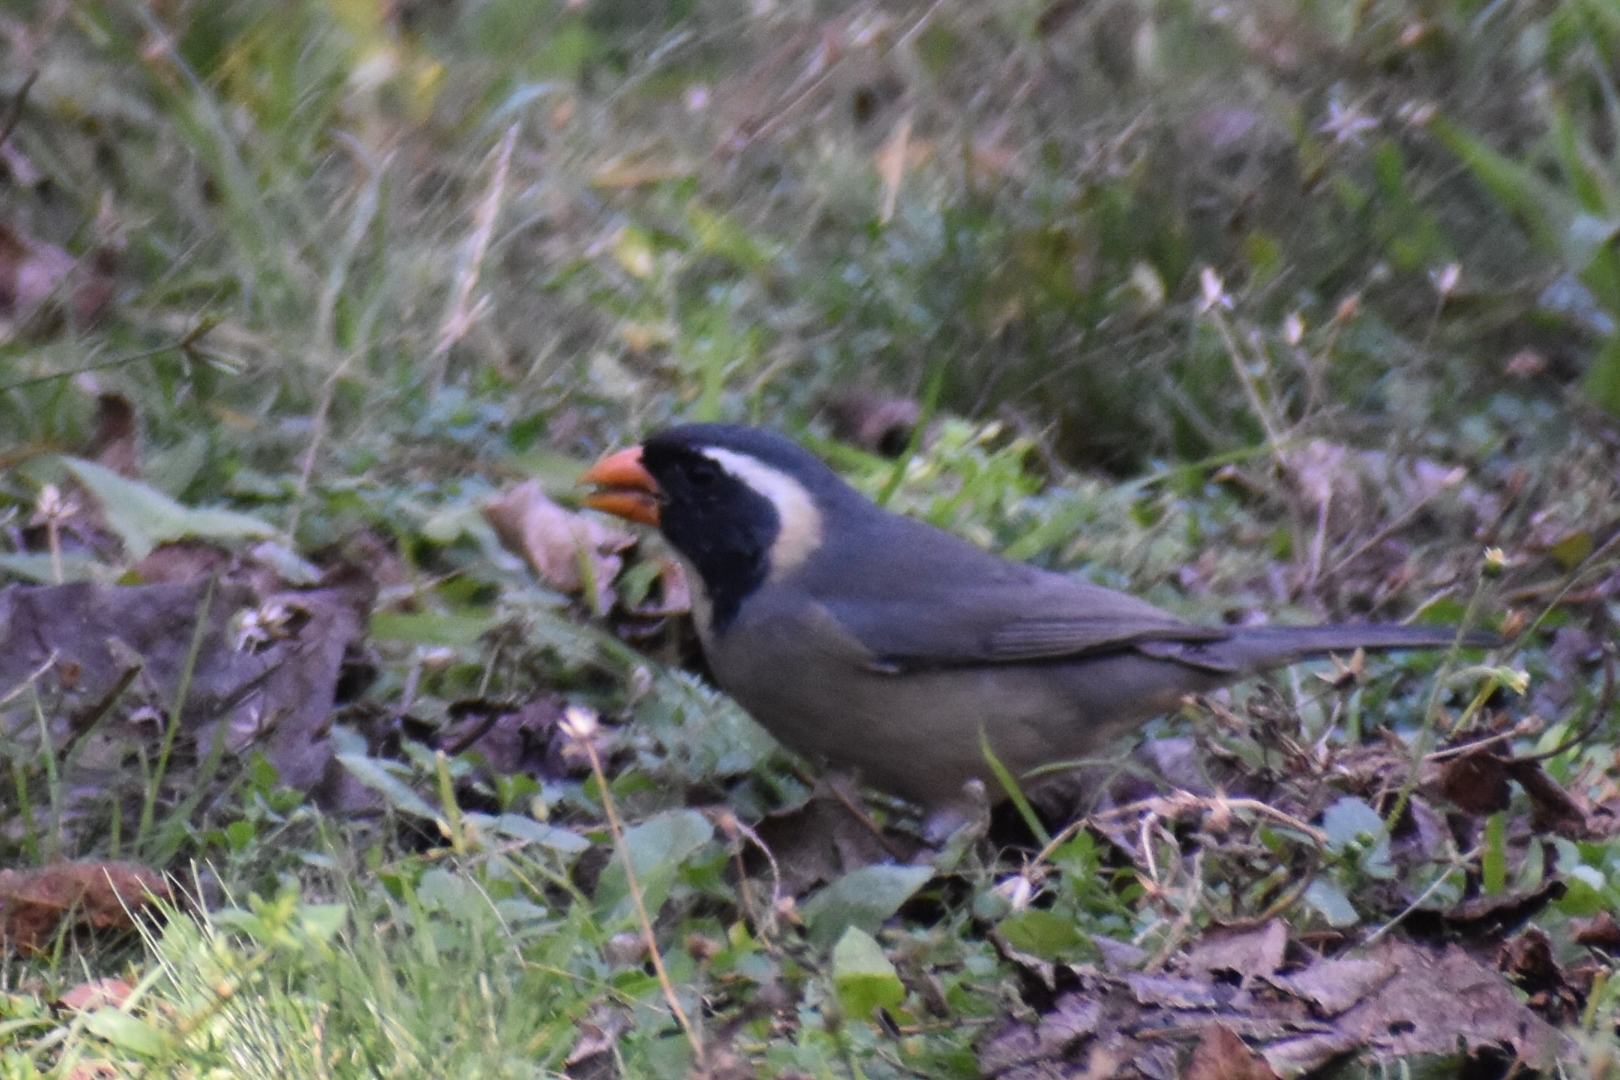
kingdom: Animalia
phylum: Chordata
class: Aves
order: Passeriformes
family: Thraupidae
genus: Saltator
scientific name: Saltator aurantiirostris
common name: Golden-billed saltator
